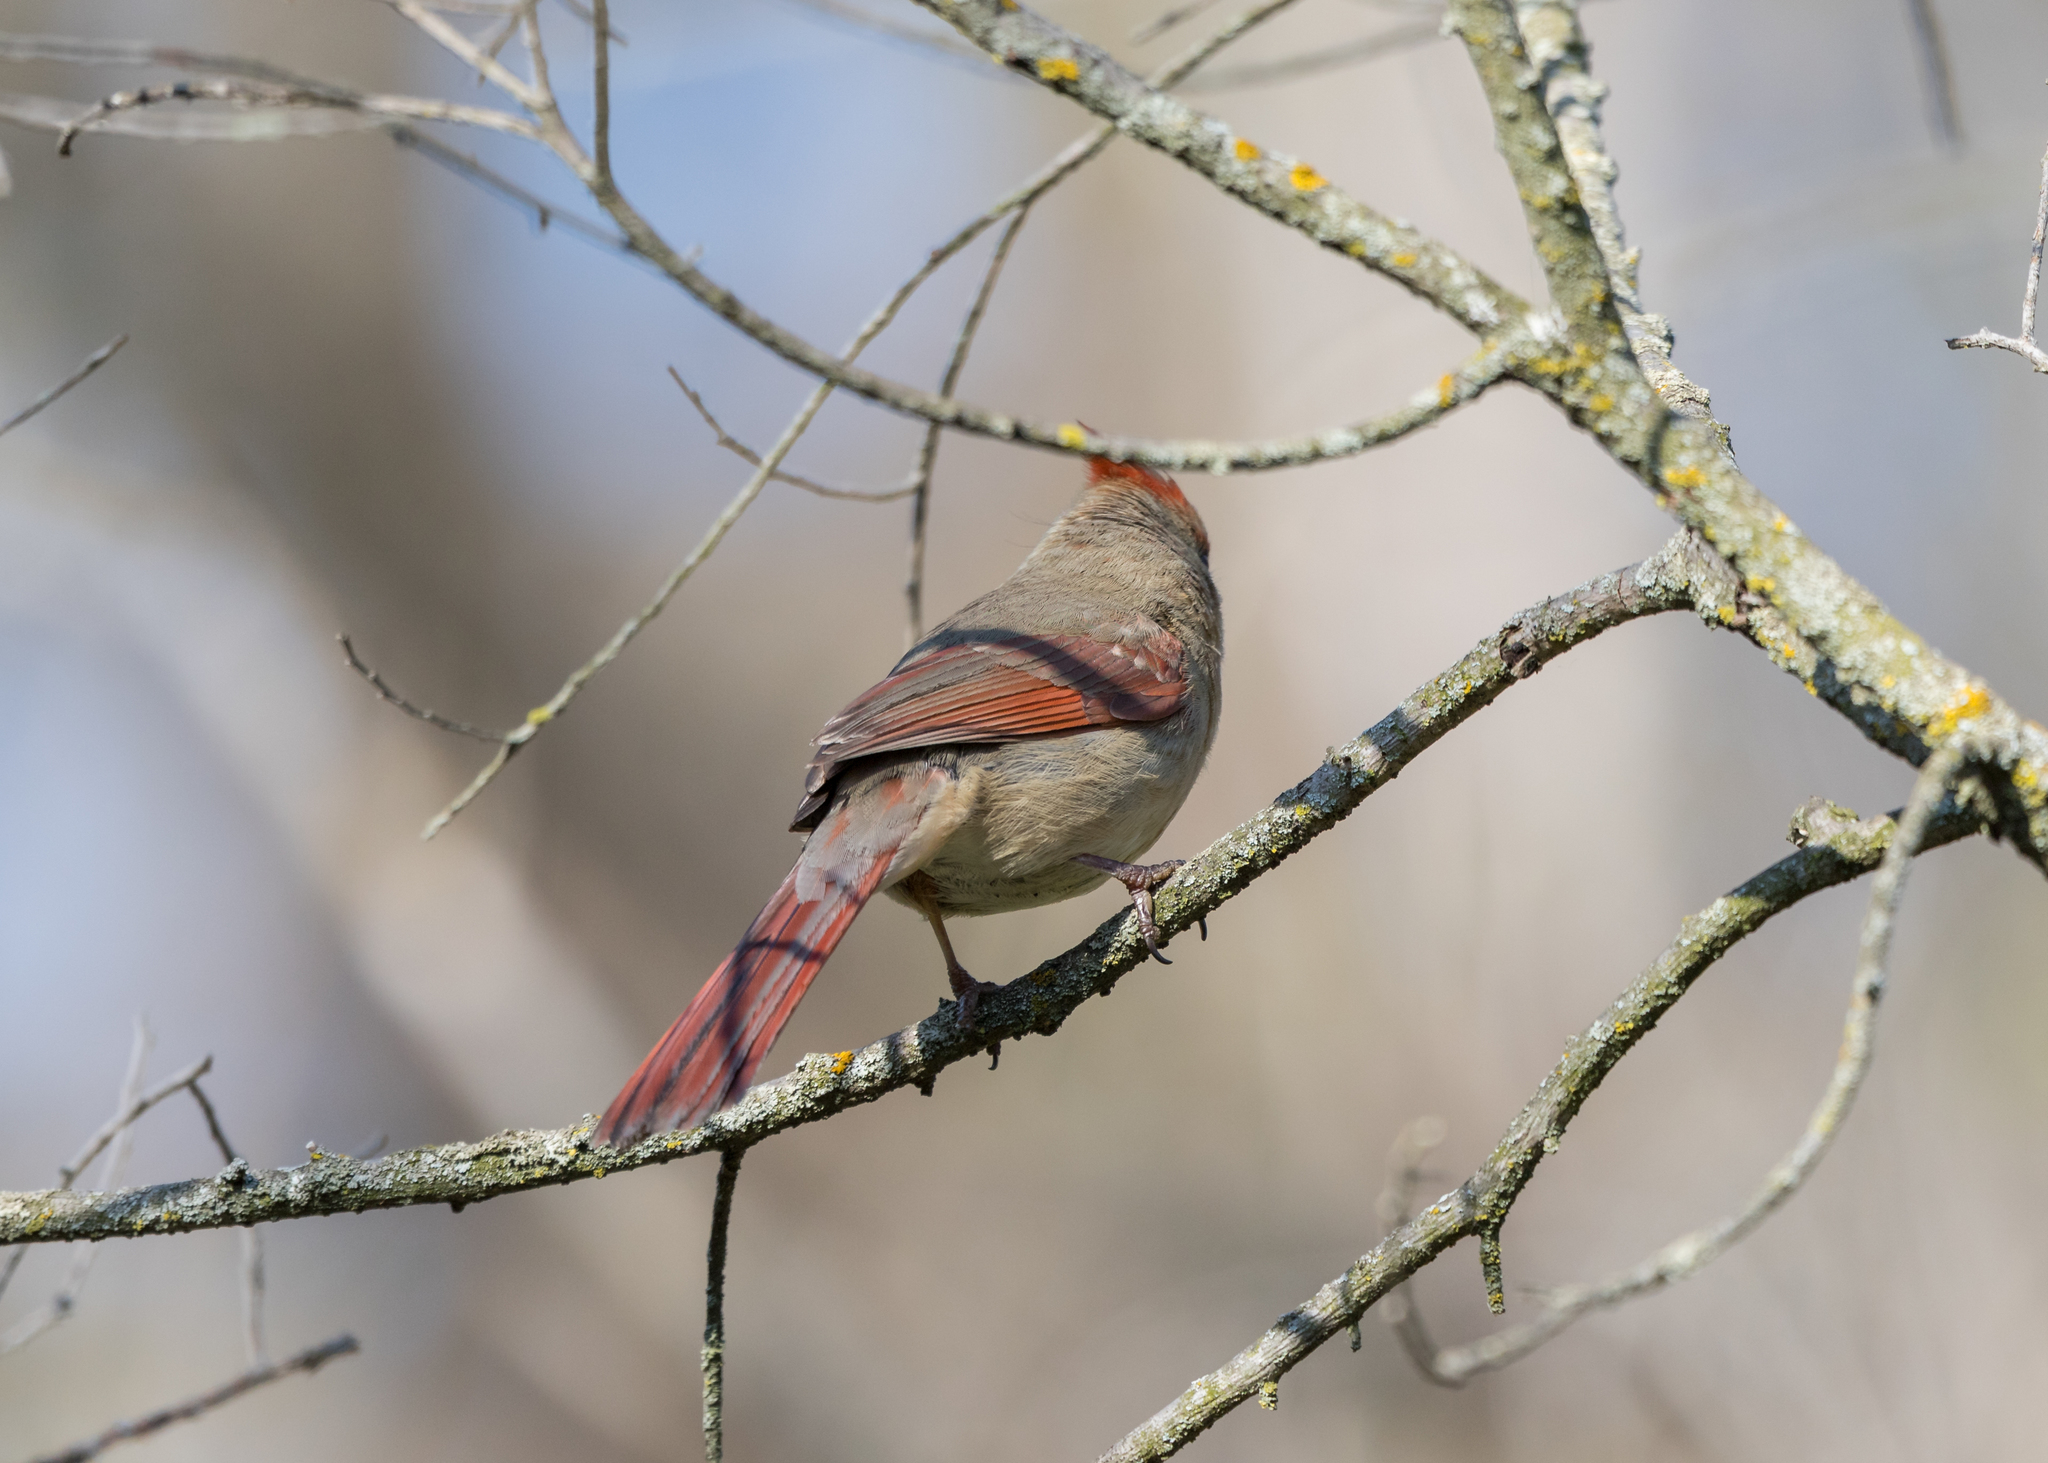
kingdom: Animalia
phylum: Chordata
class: Aves
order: Passeriformes
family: Cardinalidae
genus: Cardinalis
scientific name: Cardinalis cardinalis
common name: Northern cardinal
